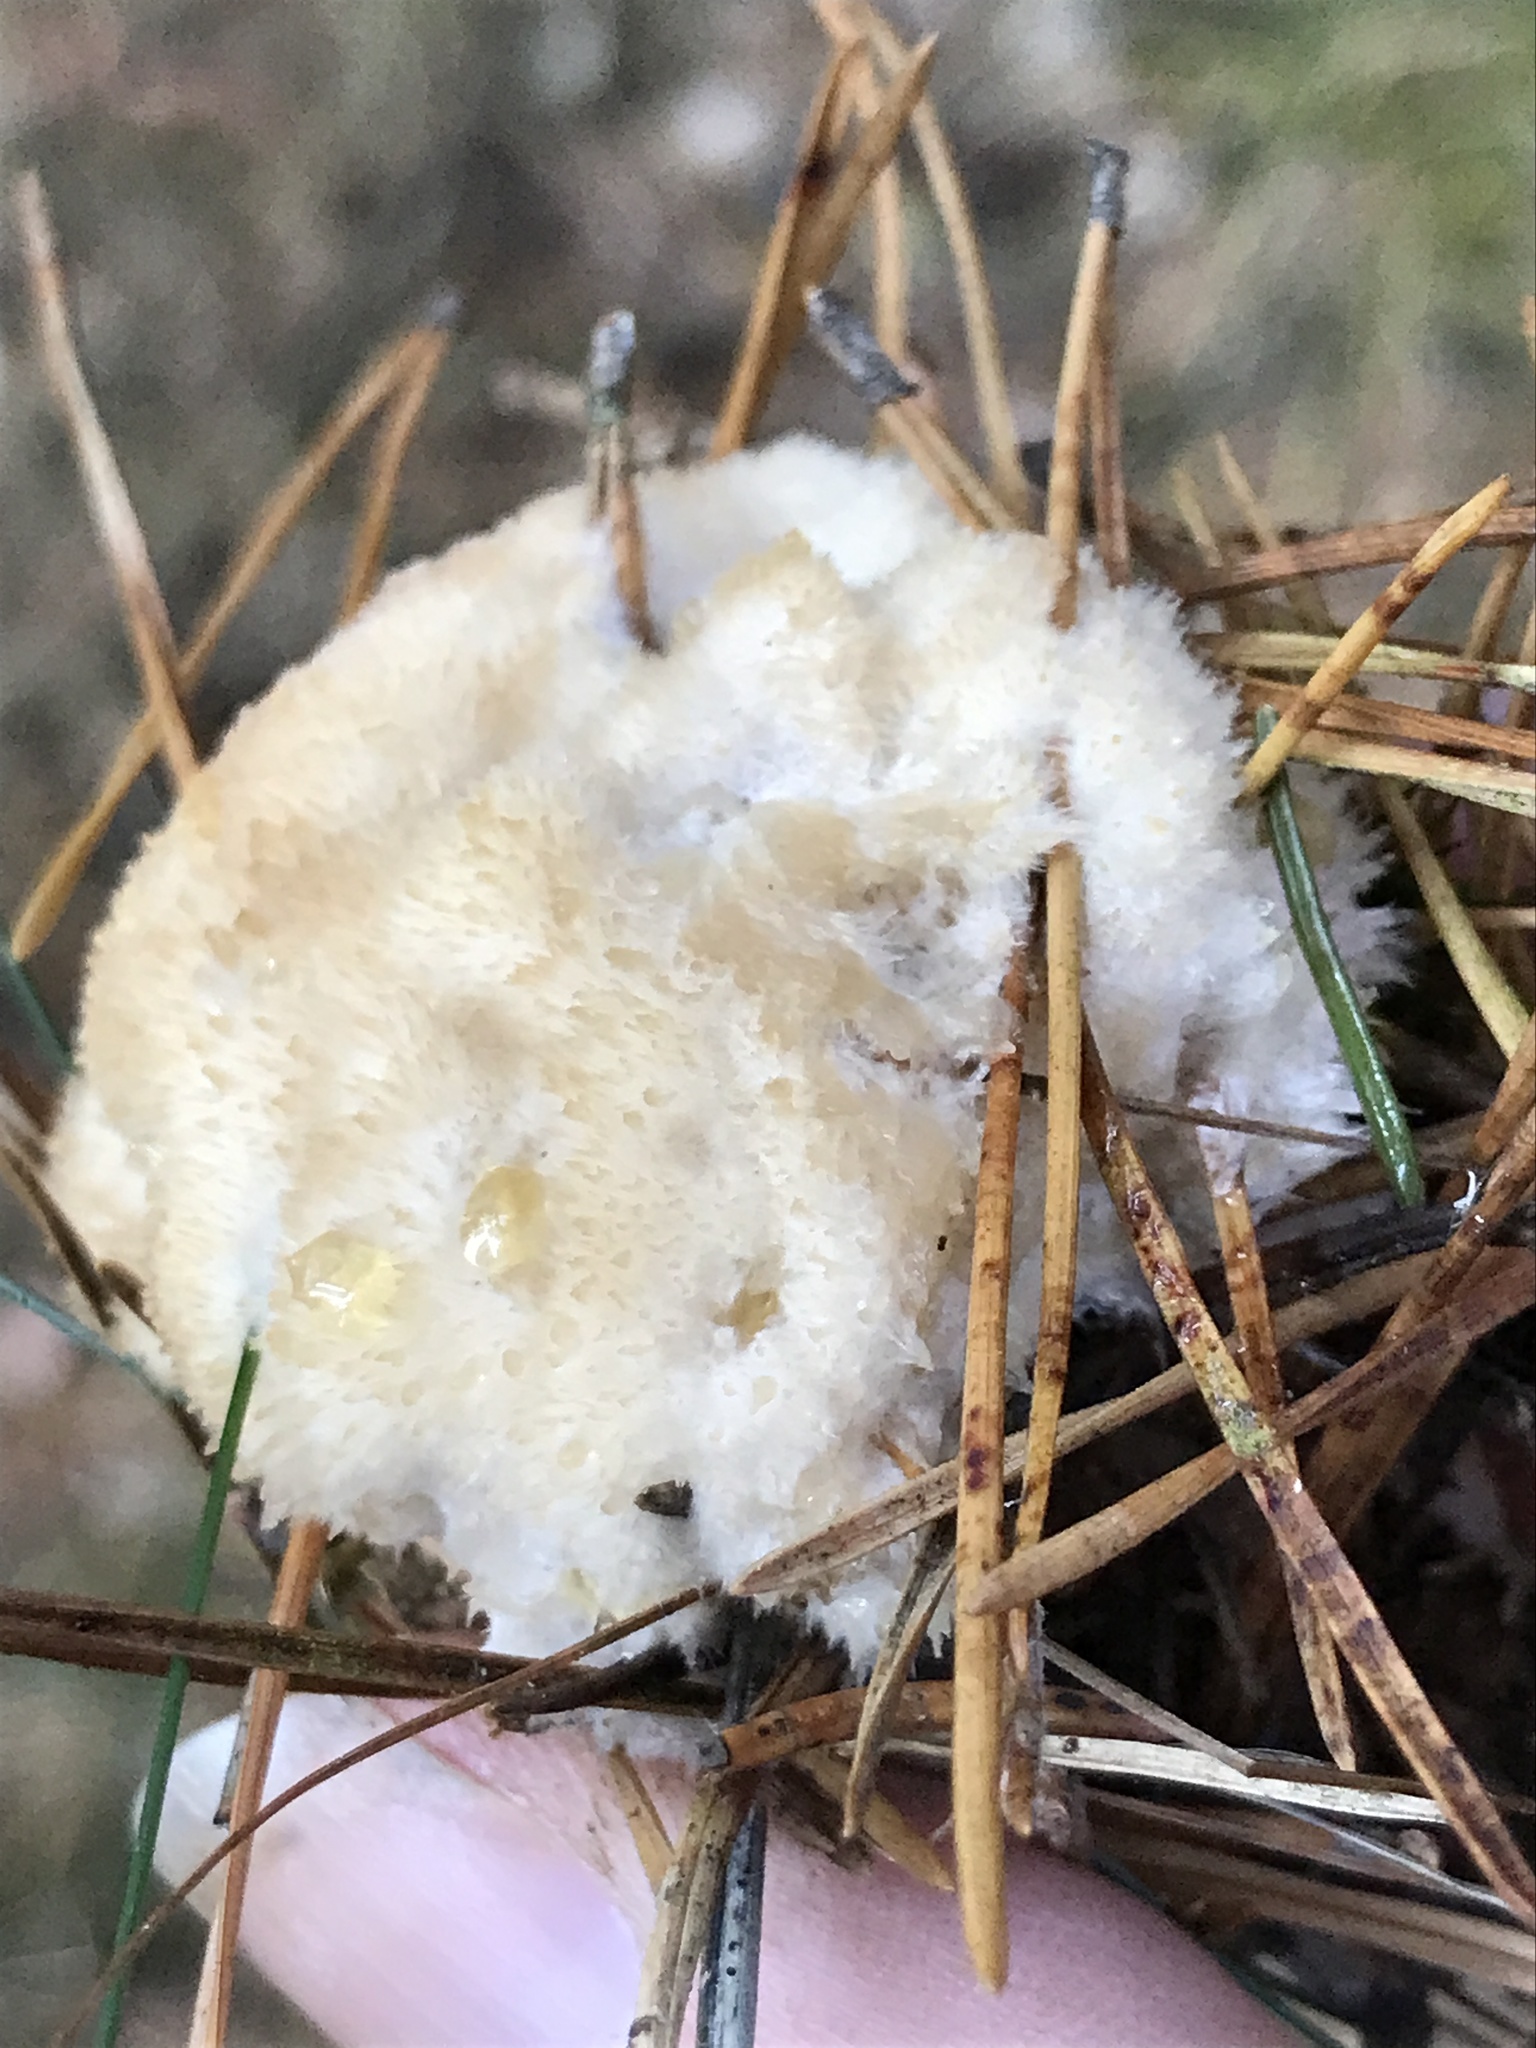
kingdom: Fungi
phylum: Basidiomycota
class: Agaricomycetes
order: Polyporales
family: Dacryobolaceae
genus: Postia
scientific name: Postia ptychogaster
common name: Powderpuff bracket
